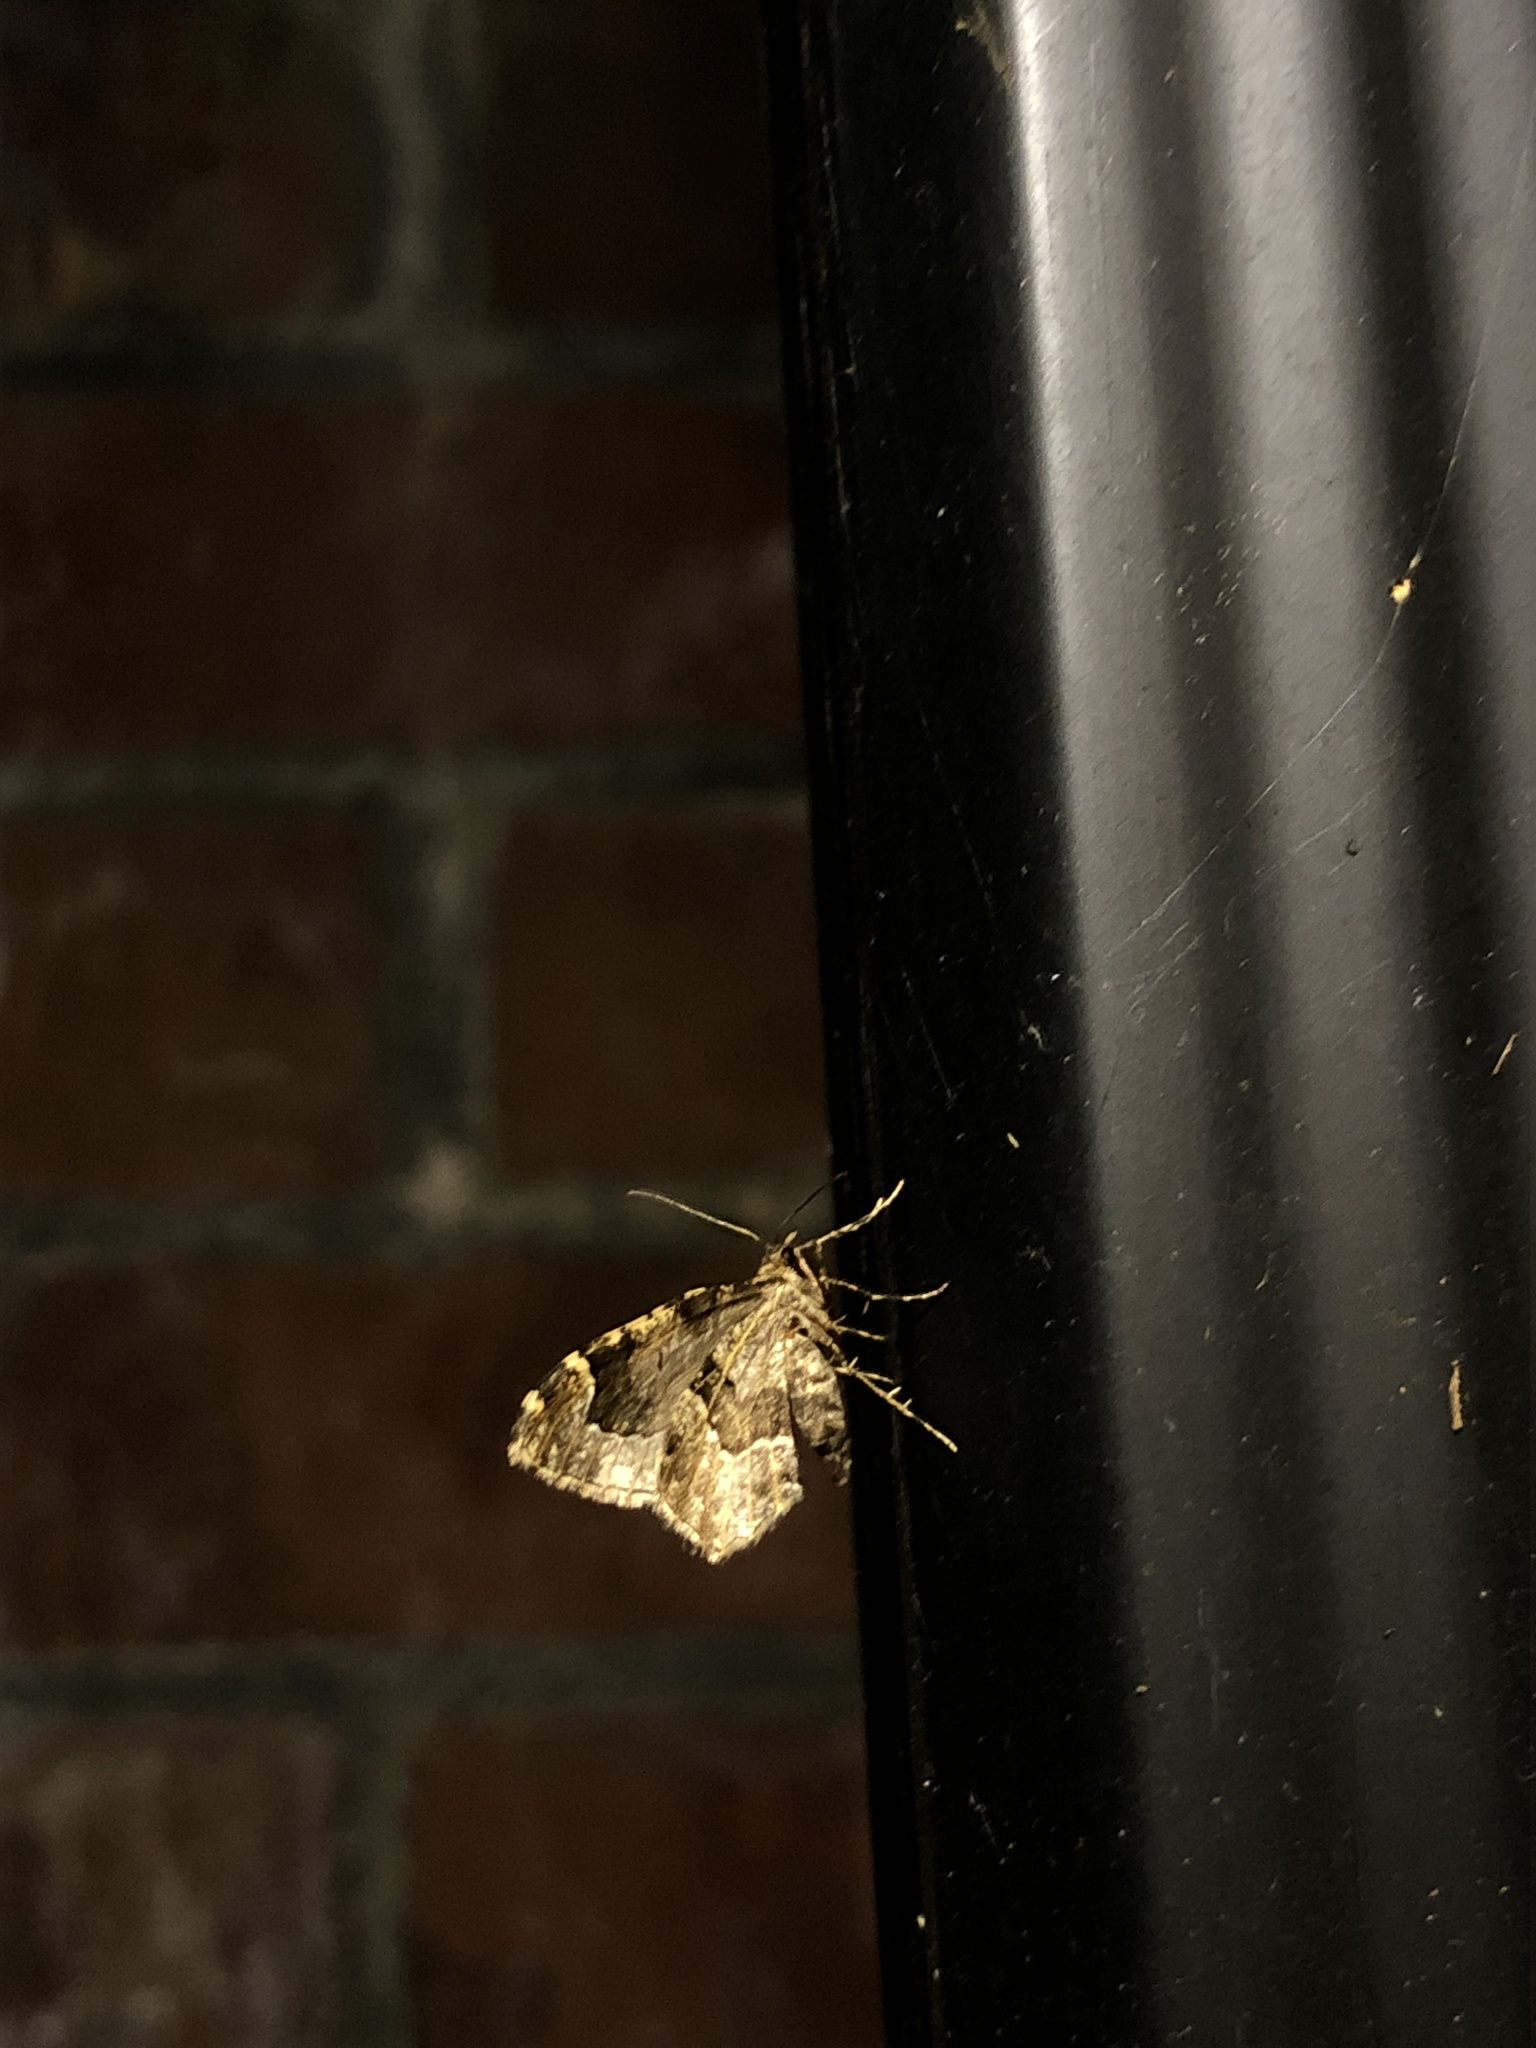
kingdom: Animalia
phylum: Arthropoda
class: Insecta
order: Lepidoptera
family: Geometridae
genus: Ceratodalia
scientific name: Ceratodalia gueneata
